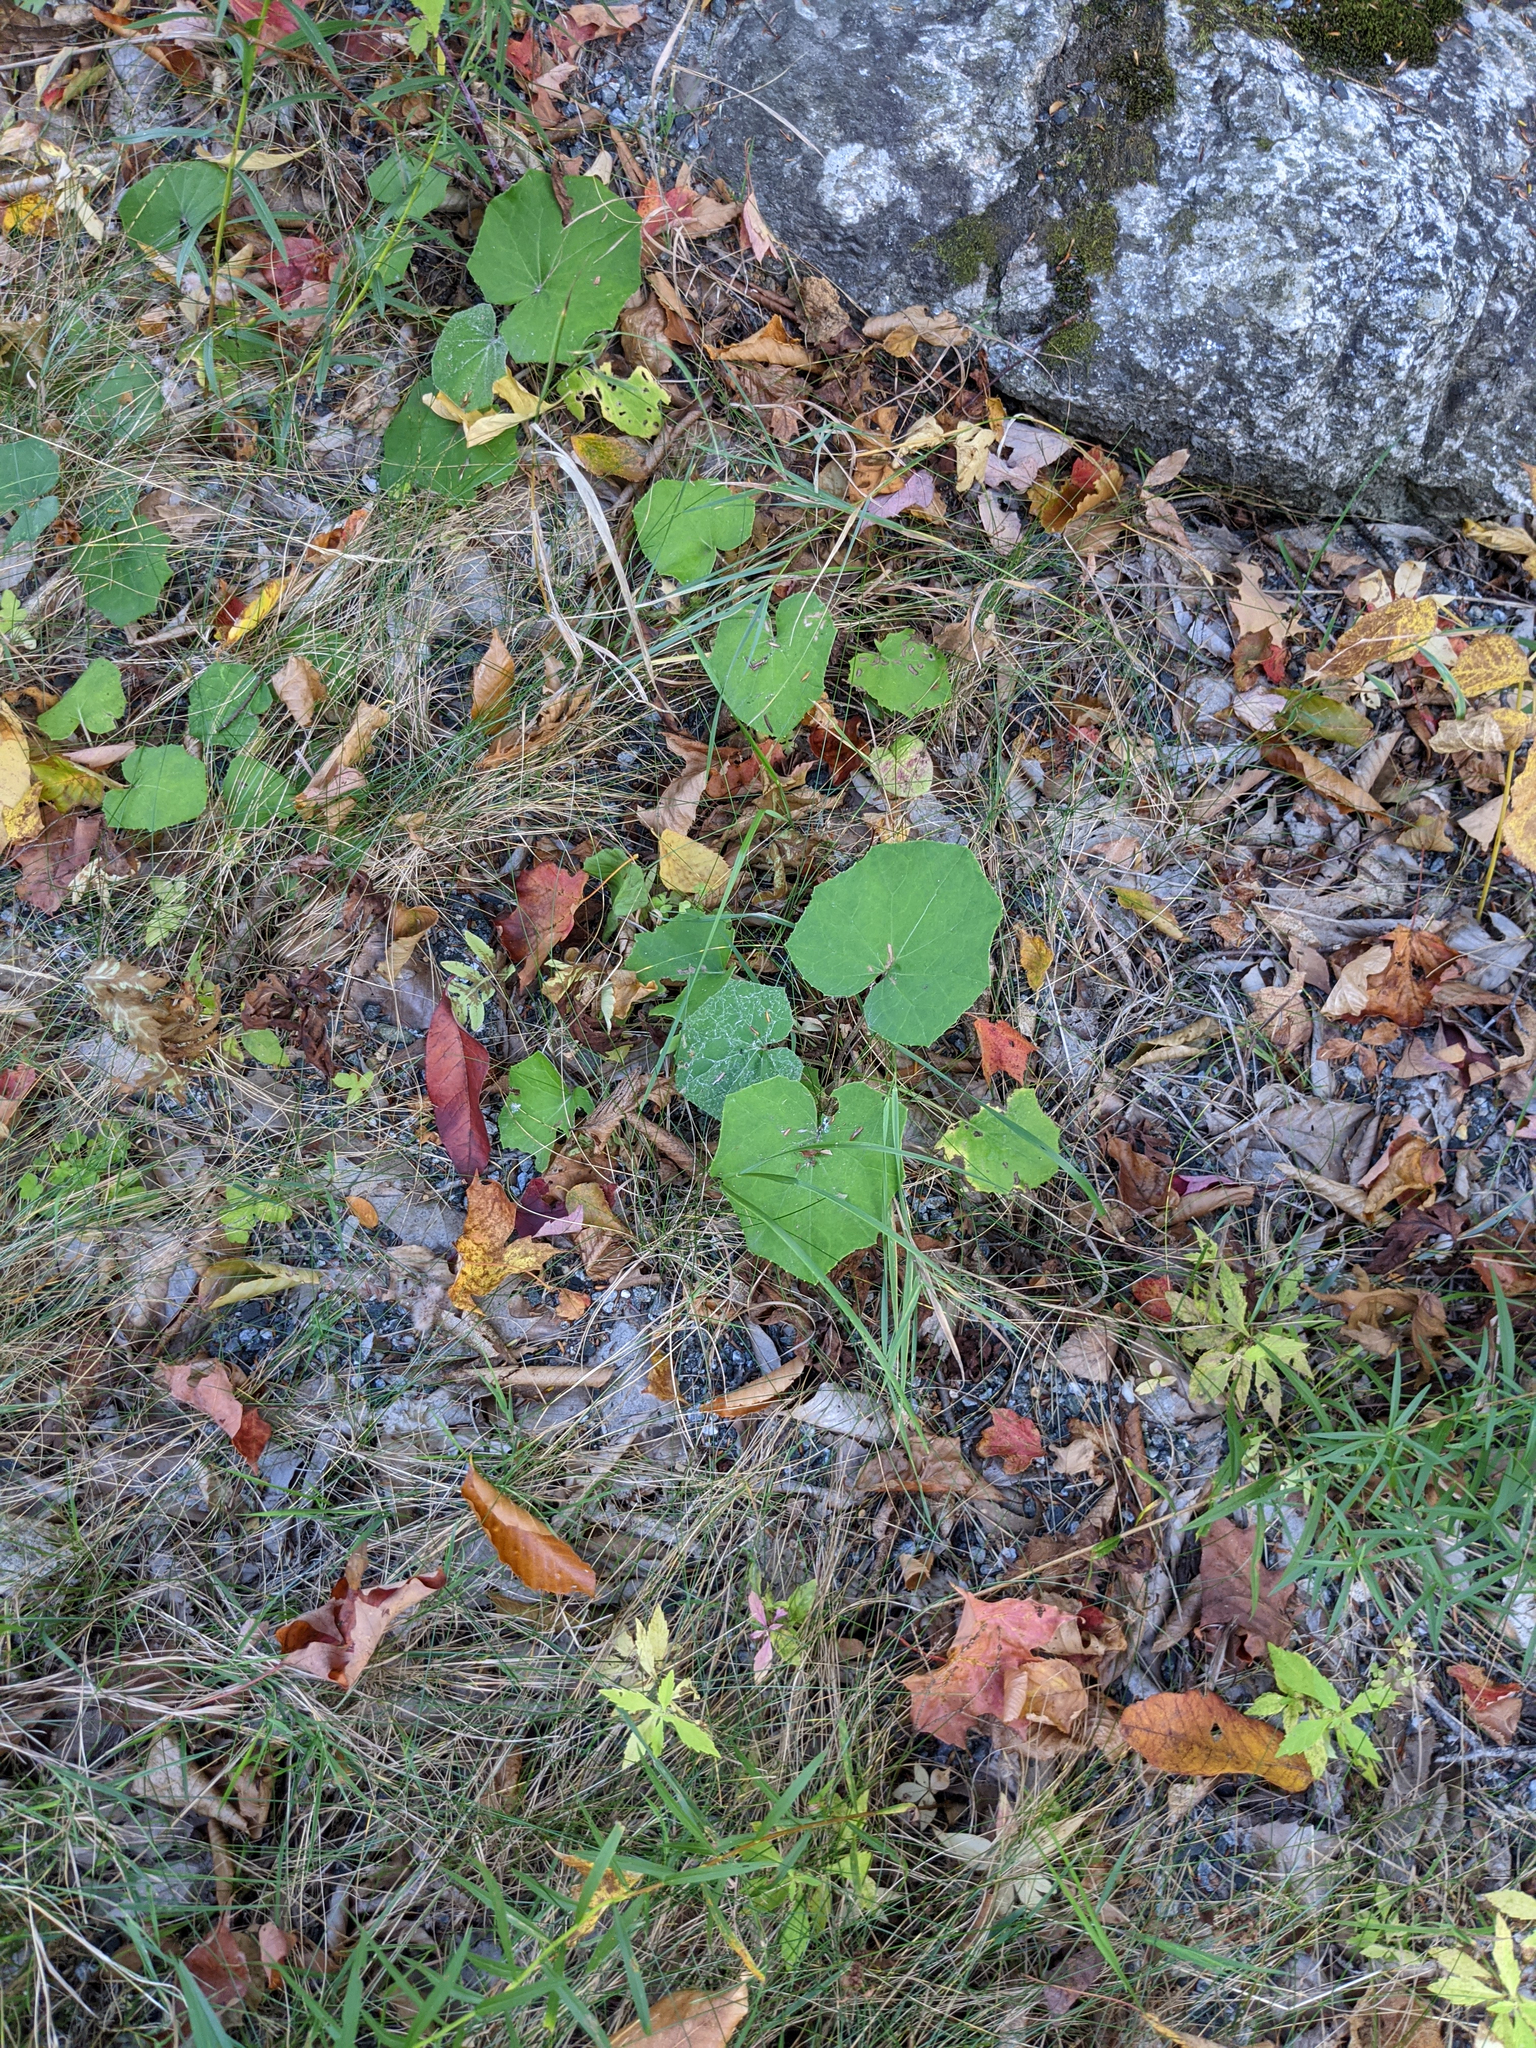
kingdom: Plantae
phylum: Tracheophyta
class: Magnoliopsida
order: Asterales
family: Asteraceae
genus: Tussilago
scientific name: Tussilago farfara
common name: Coltsfoot
